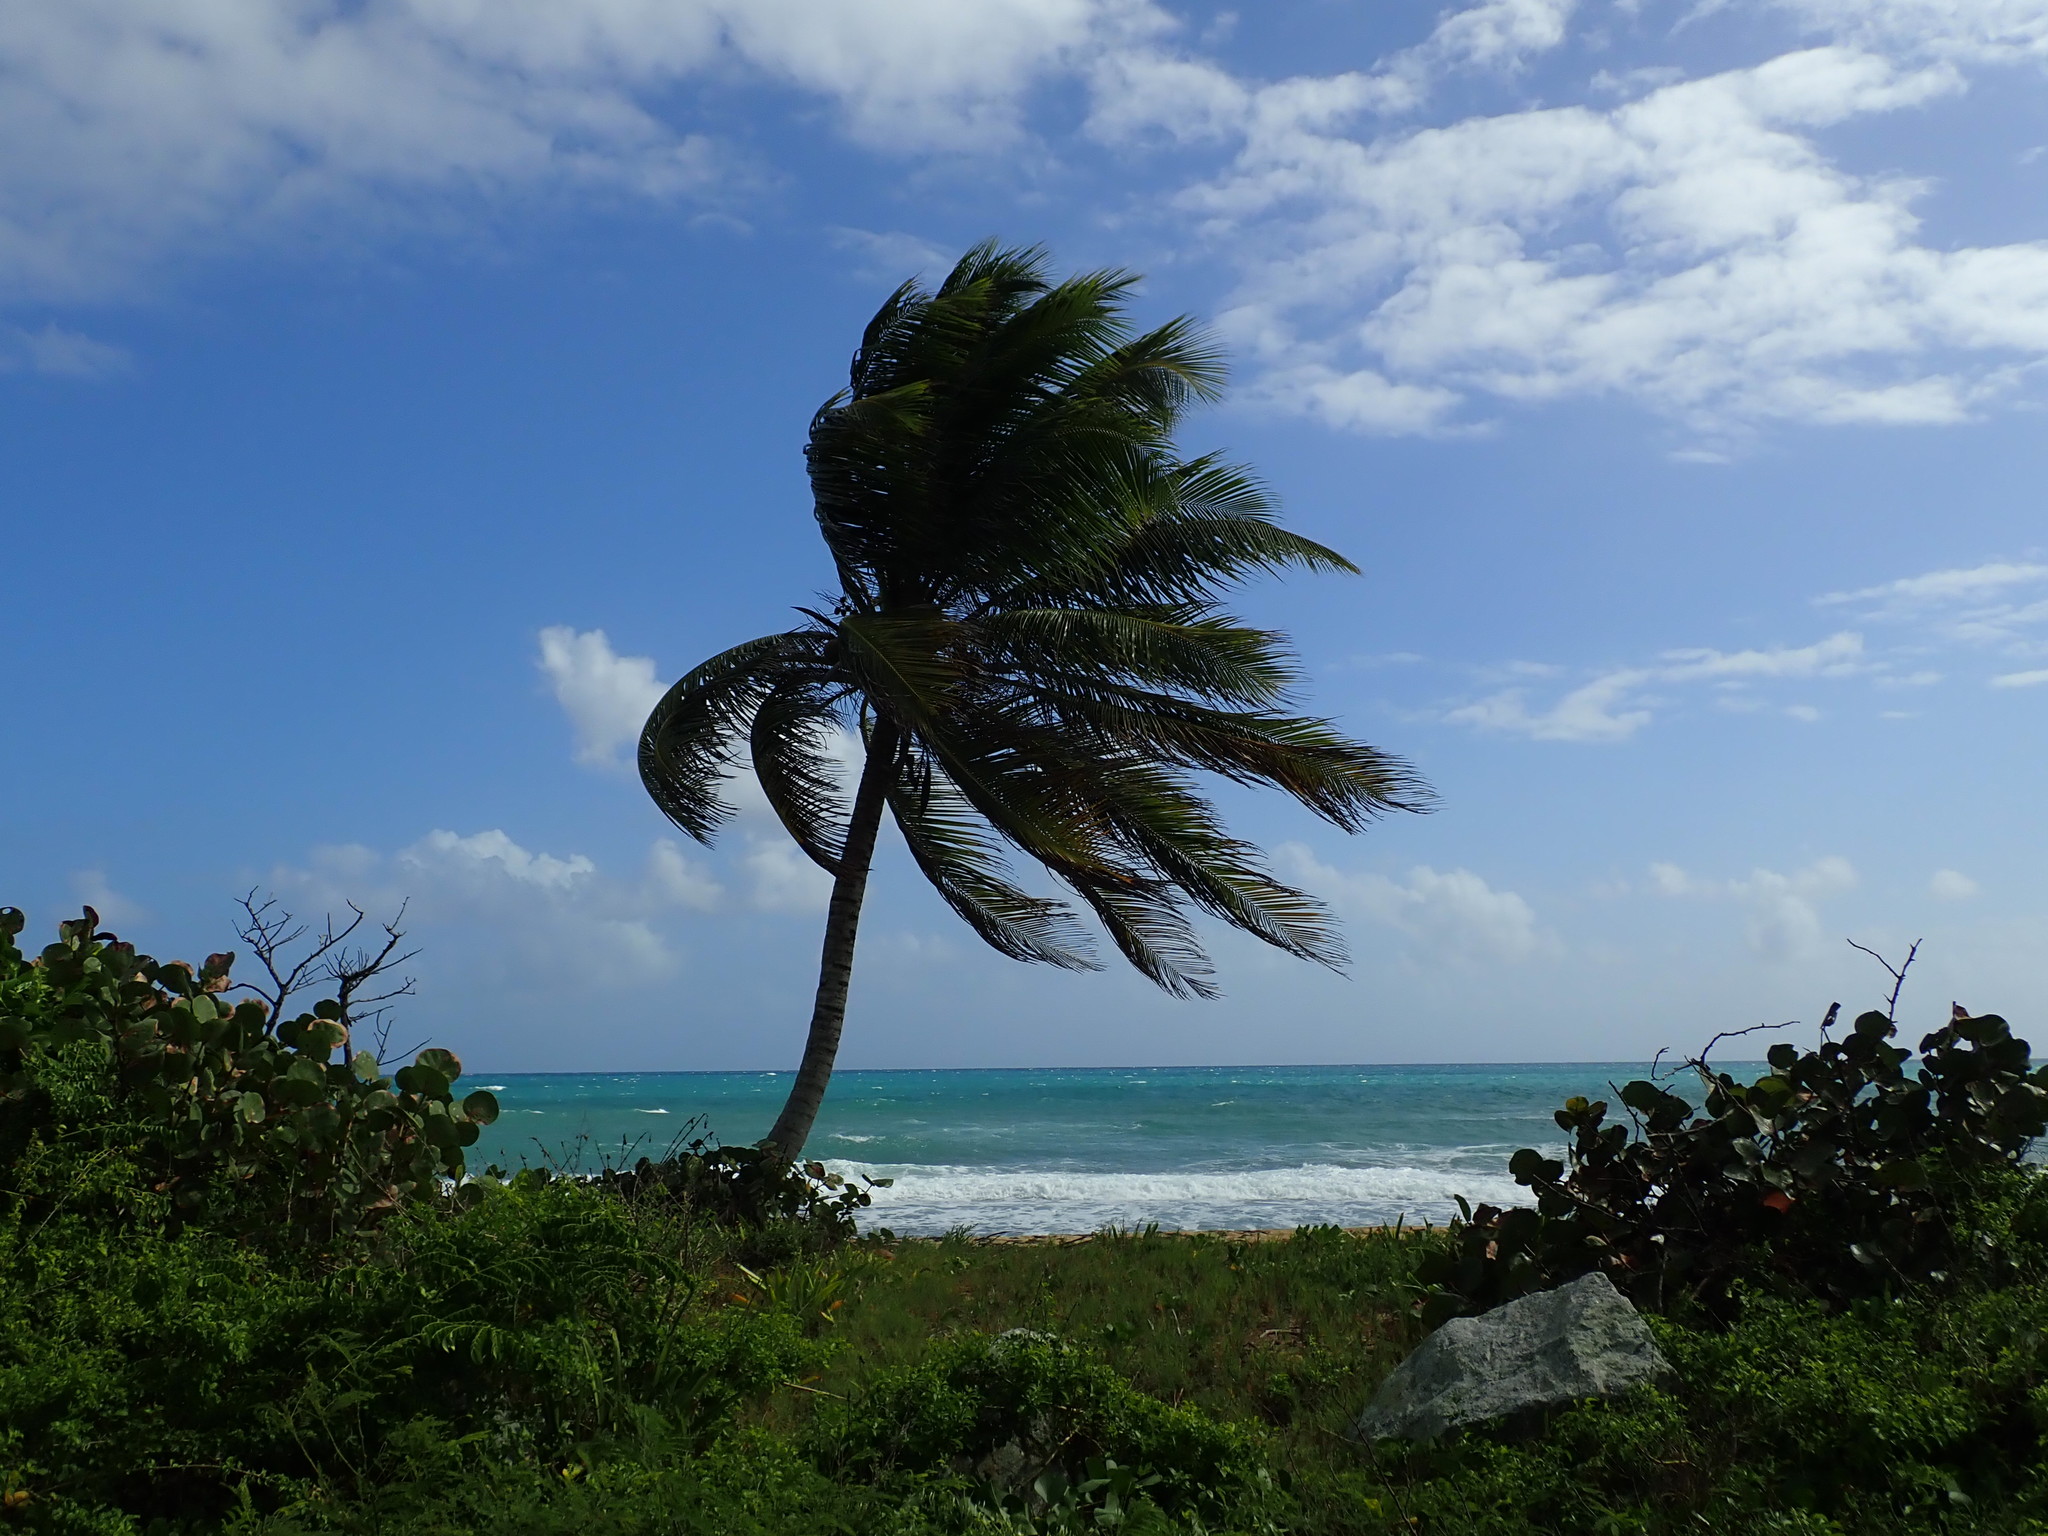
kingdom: Plantae
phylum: Tracheophyta
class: Liliopsida
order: Arecales
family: Arecaceae
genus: Cocos
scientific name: Cocos nucifera
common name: Coconut palm
